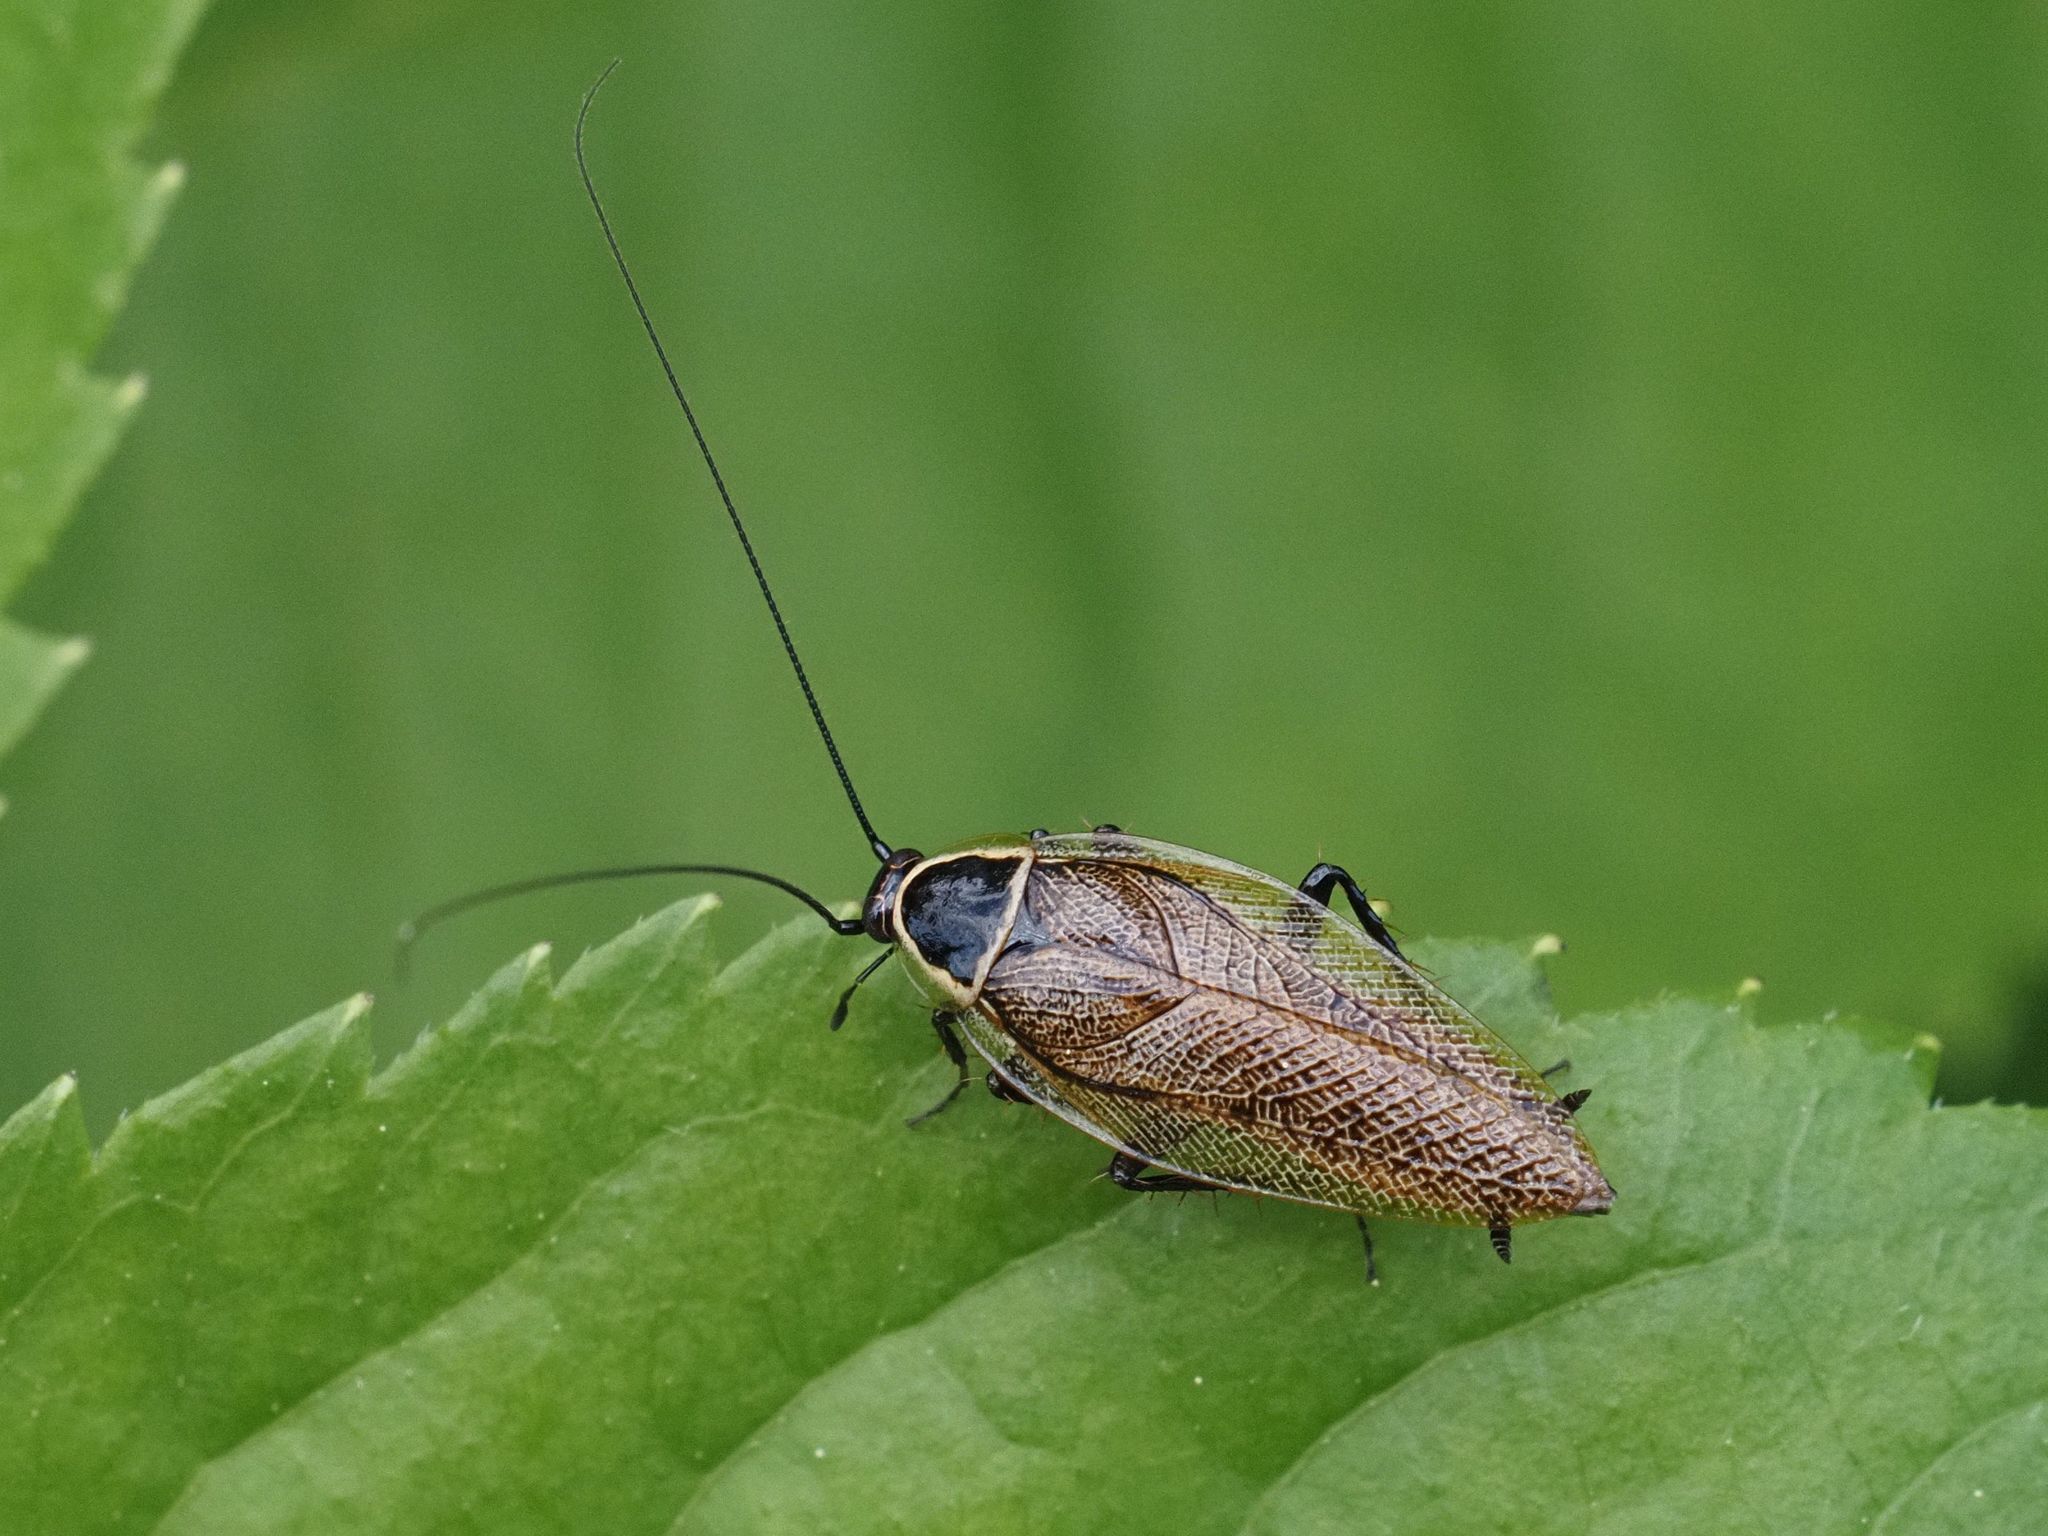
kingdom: Animalia
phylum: Arthropoda
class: Insecta
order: Blattodea
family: Ectobiidae
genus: Ectobius
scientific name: Ectobius sylvestris
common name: Forest cockroach
